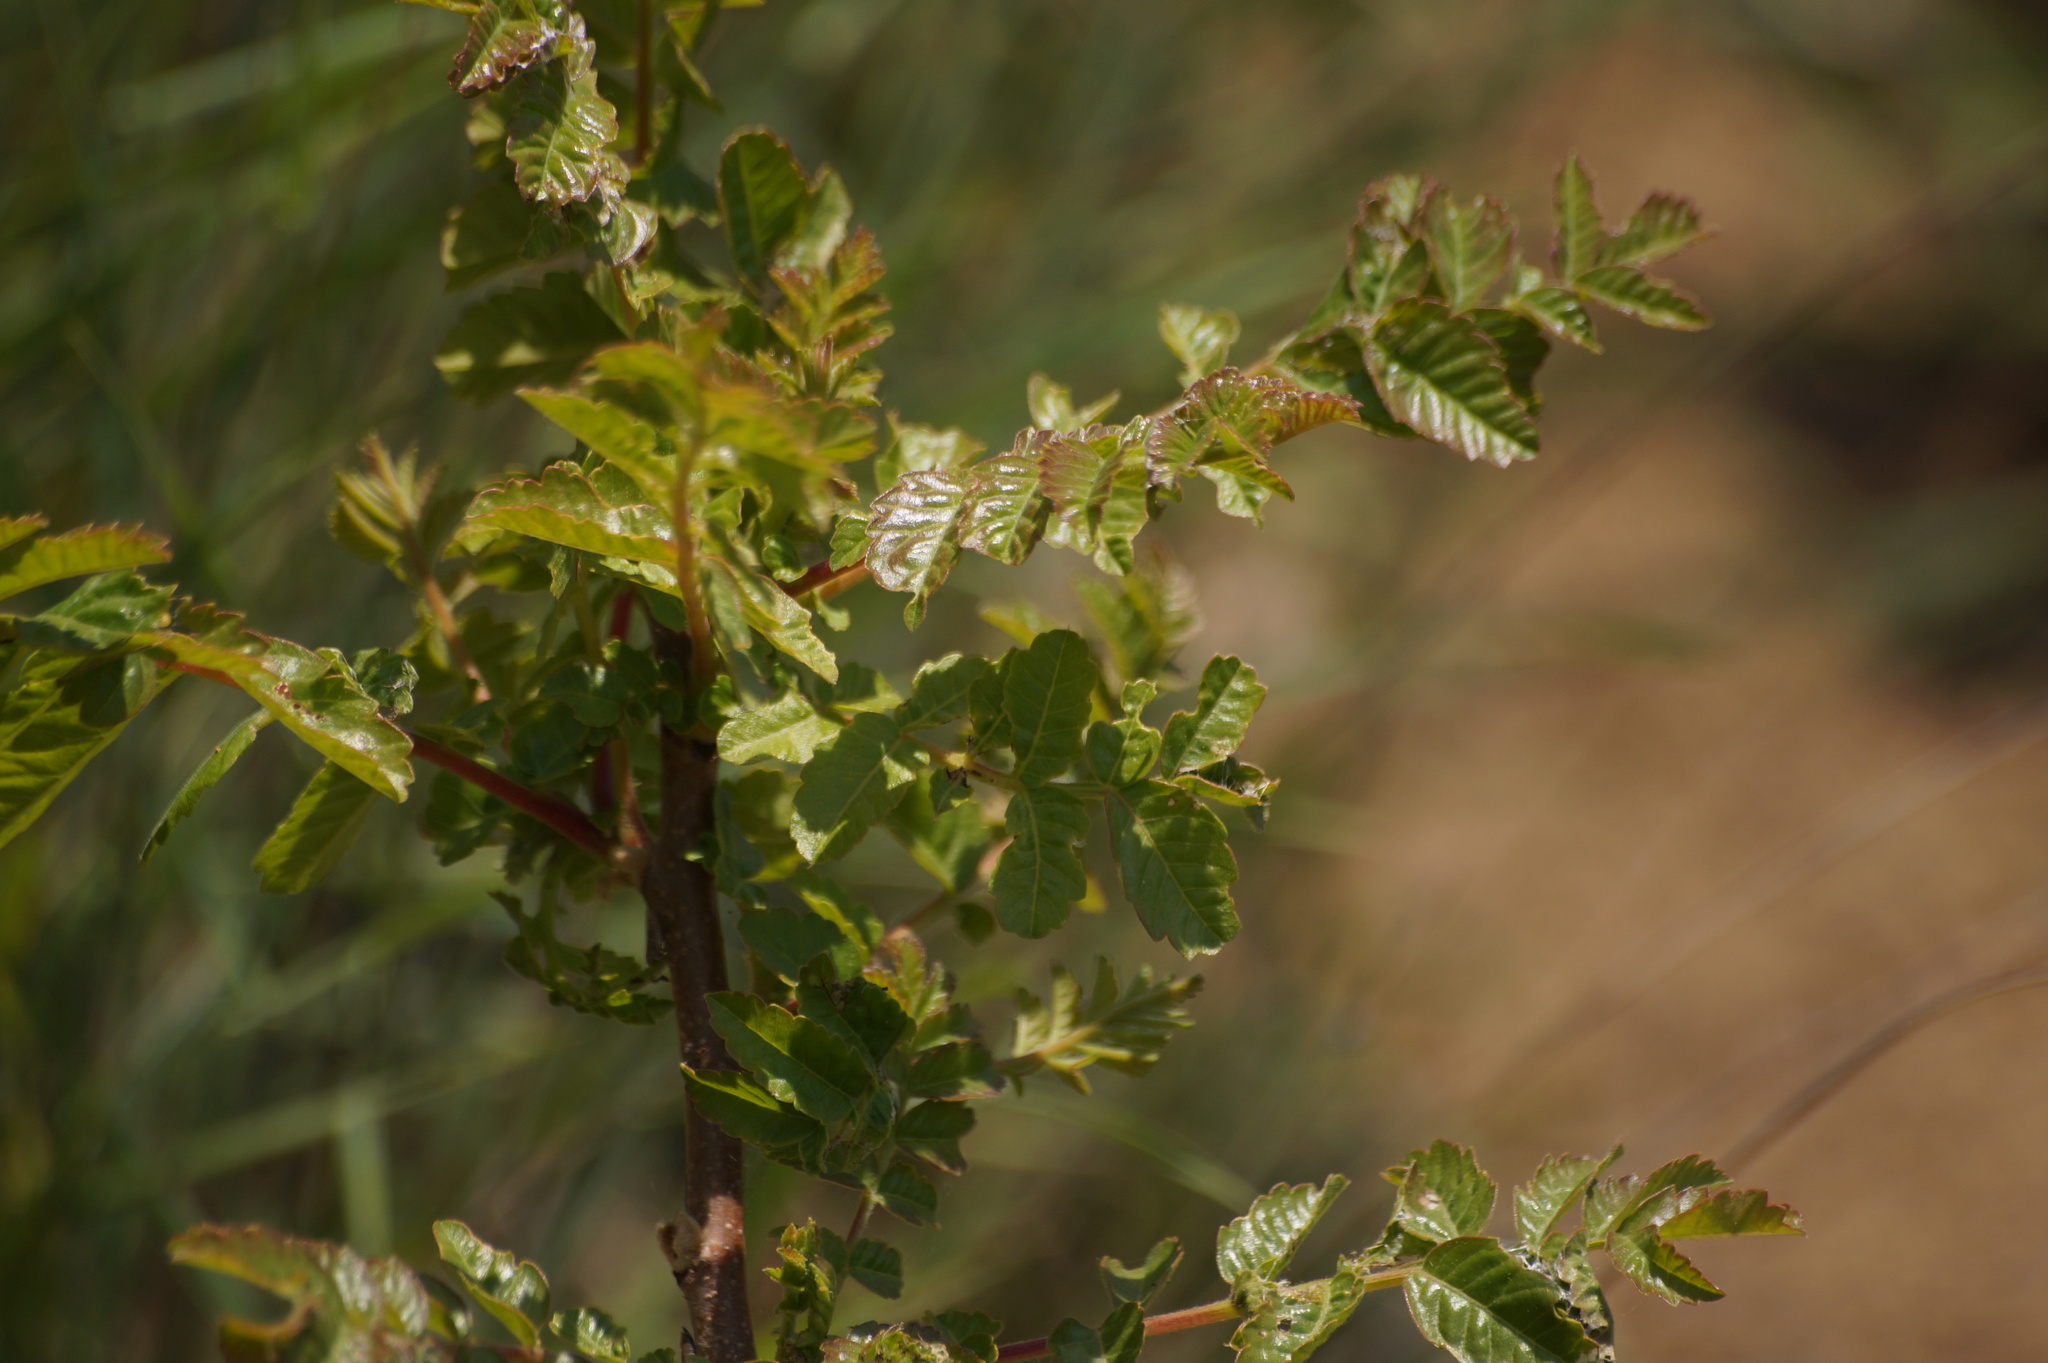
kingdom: Plantae
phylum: Tracheophyta
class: Magnoliopsida
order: Sapindales
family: Anacardiaceae
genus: Rhus
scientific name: Rhus coriaria
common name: Tanner's sumach
